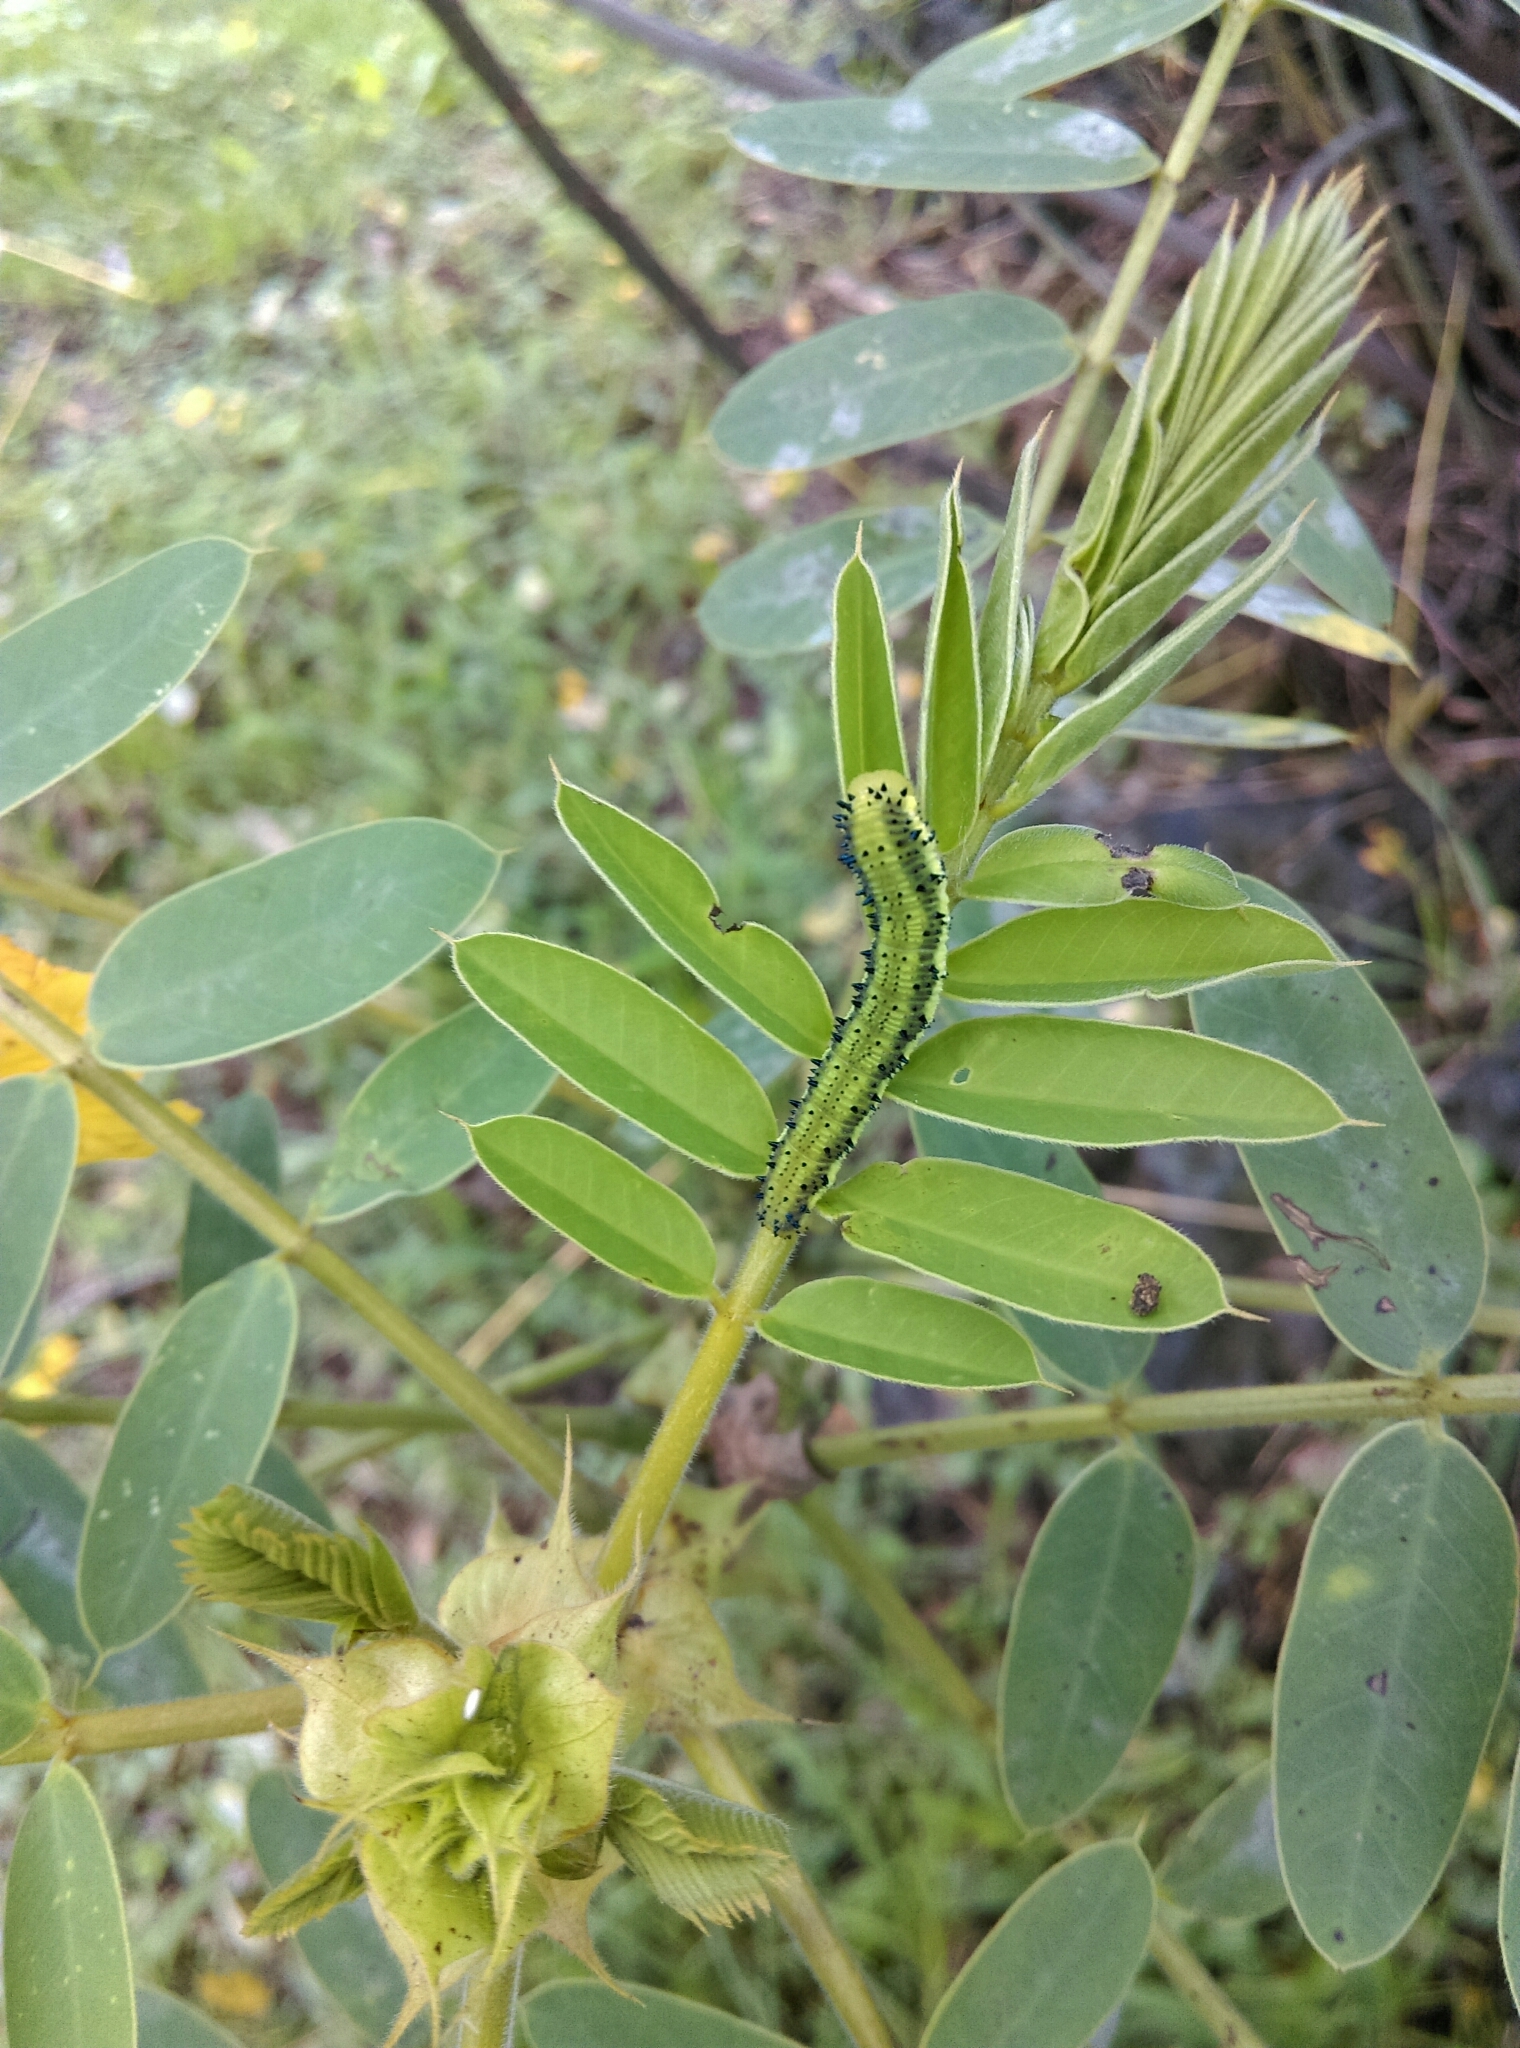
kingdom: Animalia
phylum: Arthropoda
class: Insecta
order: Lepidoptera
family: Pieridae
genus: Phoebis
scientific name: Phoebis philea
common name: Orange-barred giant sulphur
